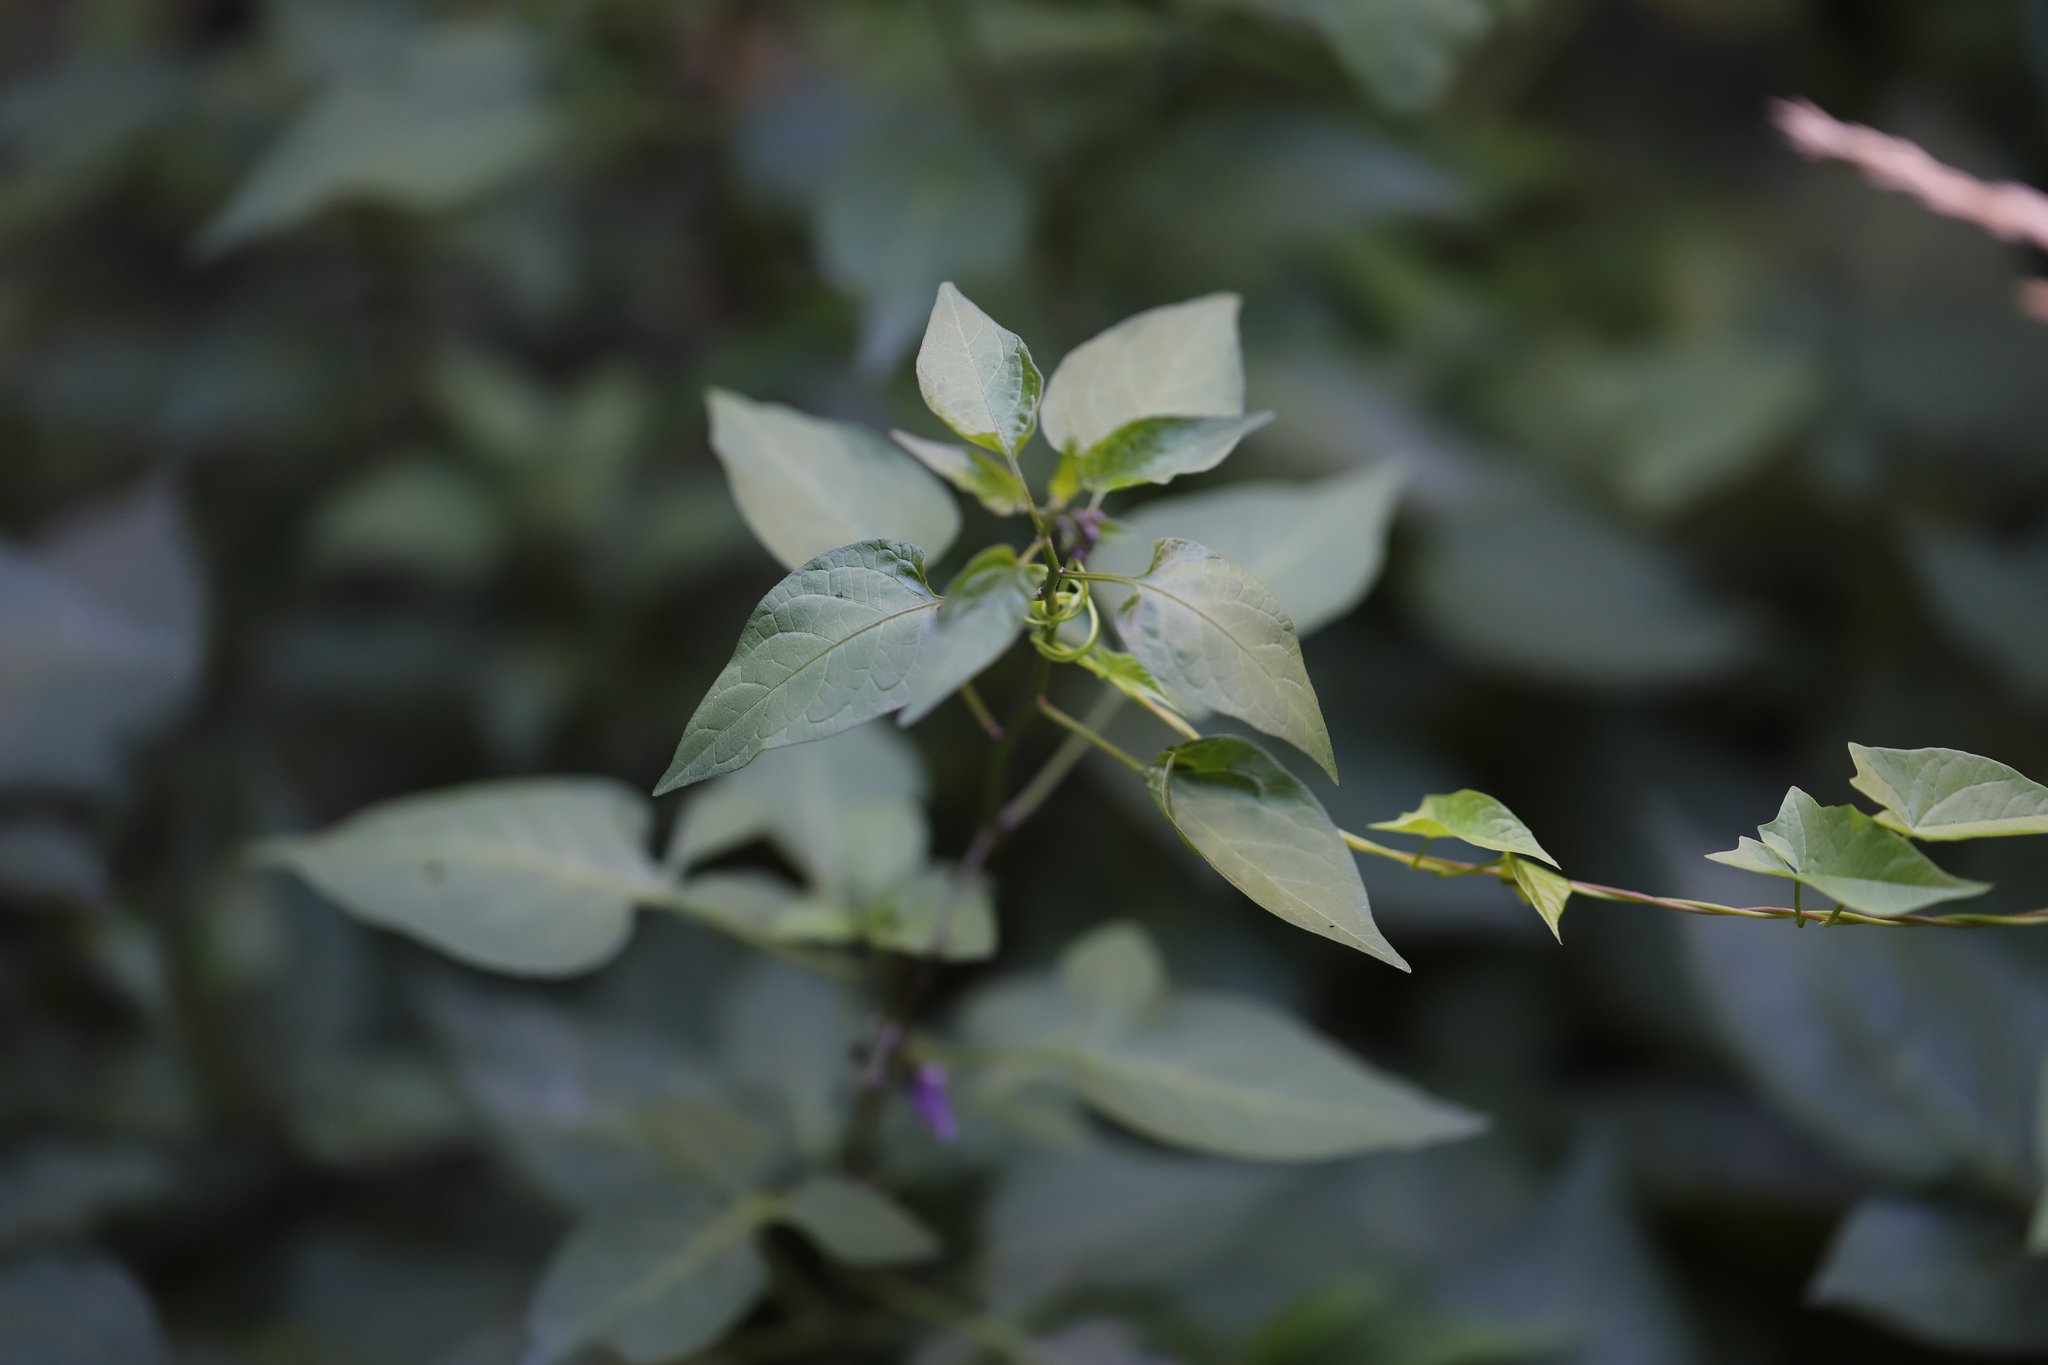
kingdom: Plantae
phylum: Tracheophyta
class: Magnoliopsida
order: Solanales
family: Solanaceae
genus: Solanum
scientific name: Solanum dulcamara
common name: Climbing nightshade
